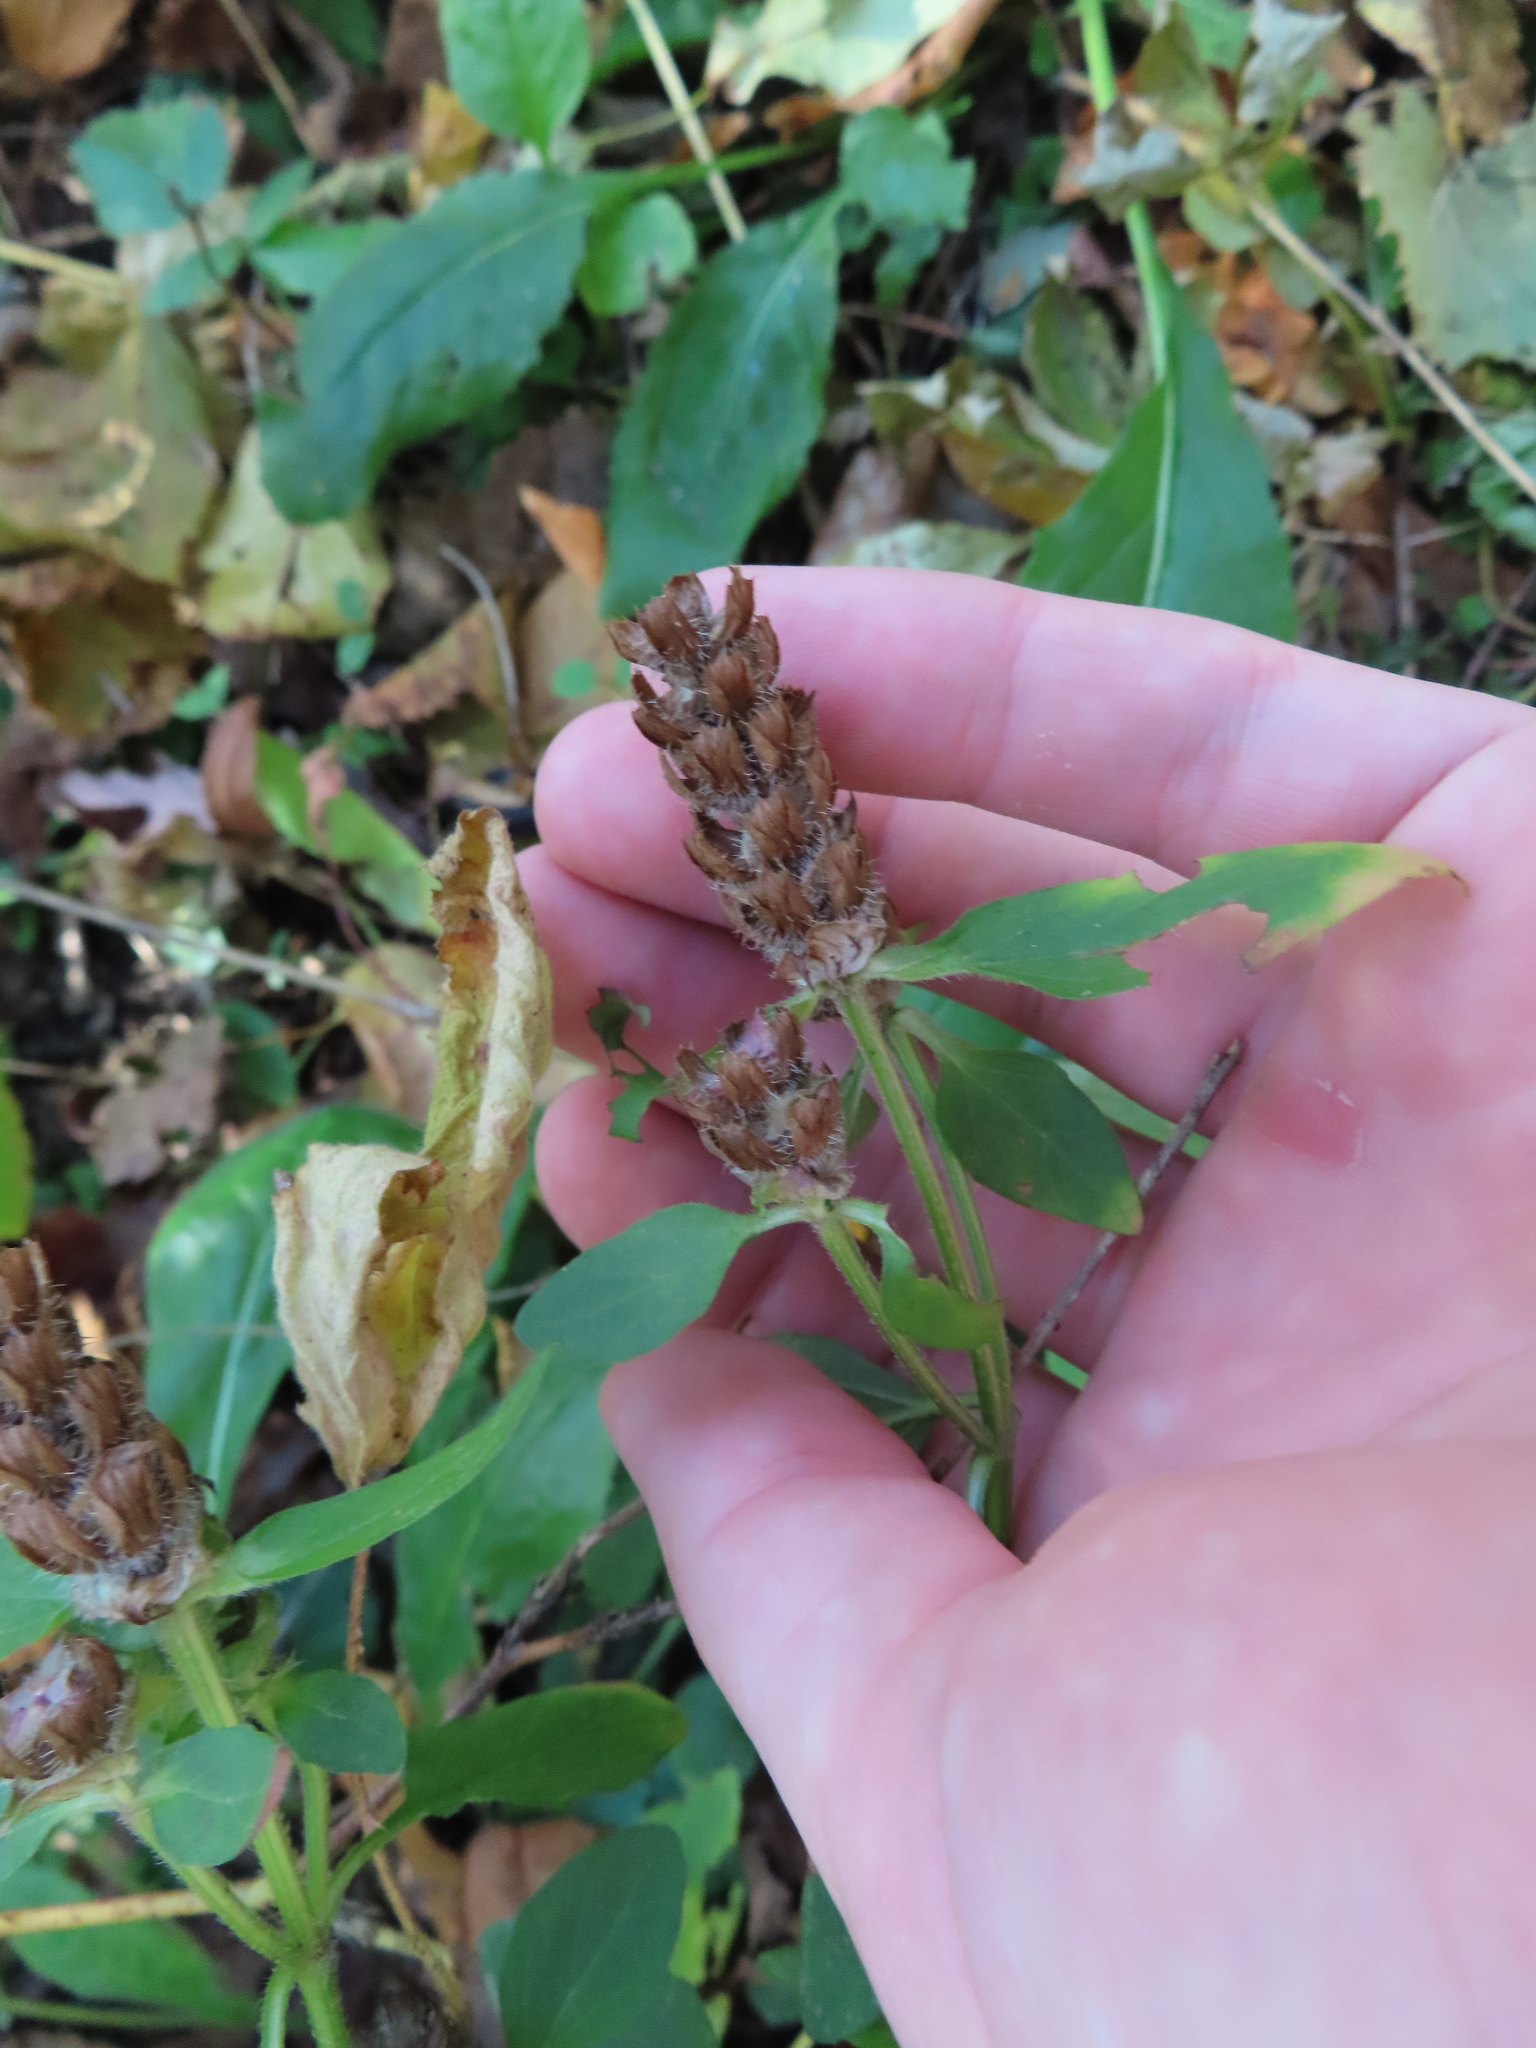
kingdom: Plantae
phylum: Tracheophyta
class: Magnoliopsida
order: Lamiales
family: Lamiaceae
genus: Prunella
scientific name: Prunella vulgaris
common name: Heal-all
